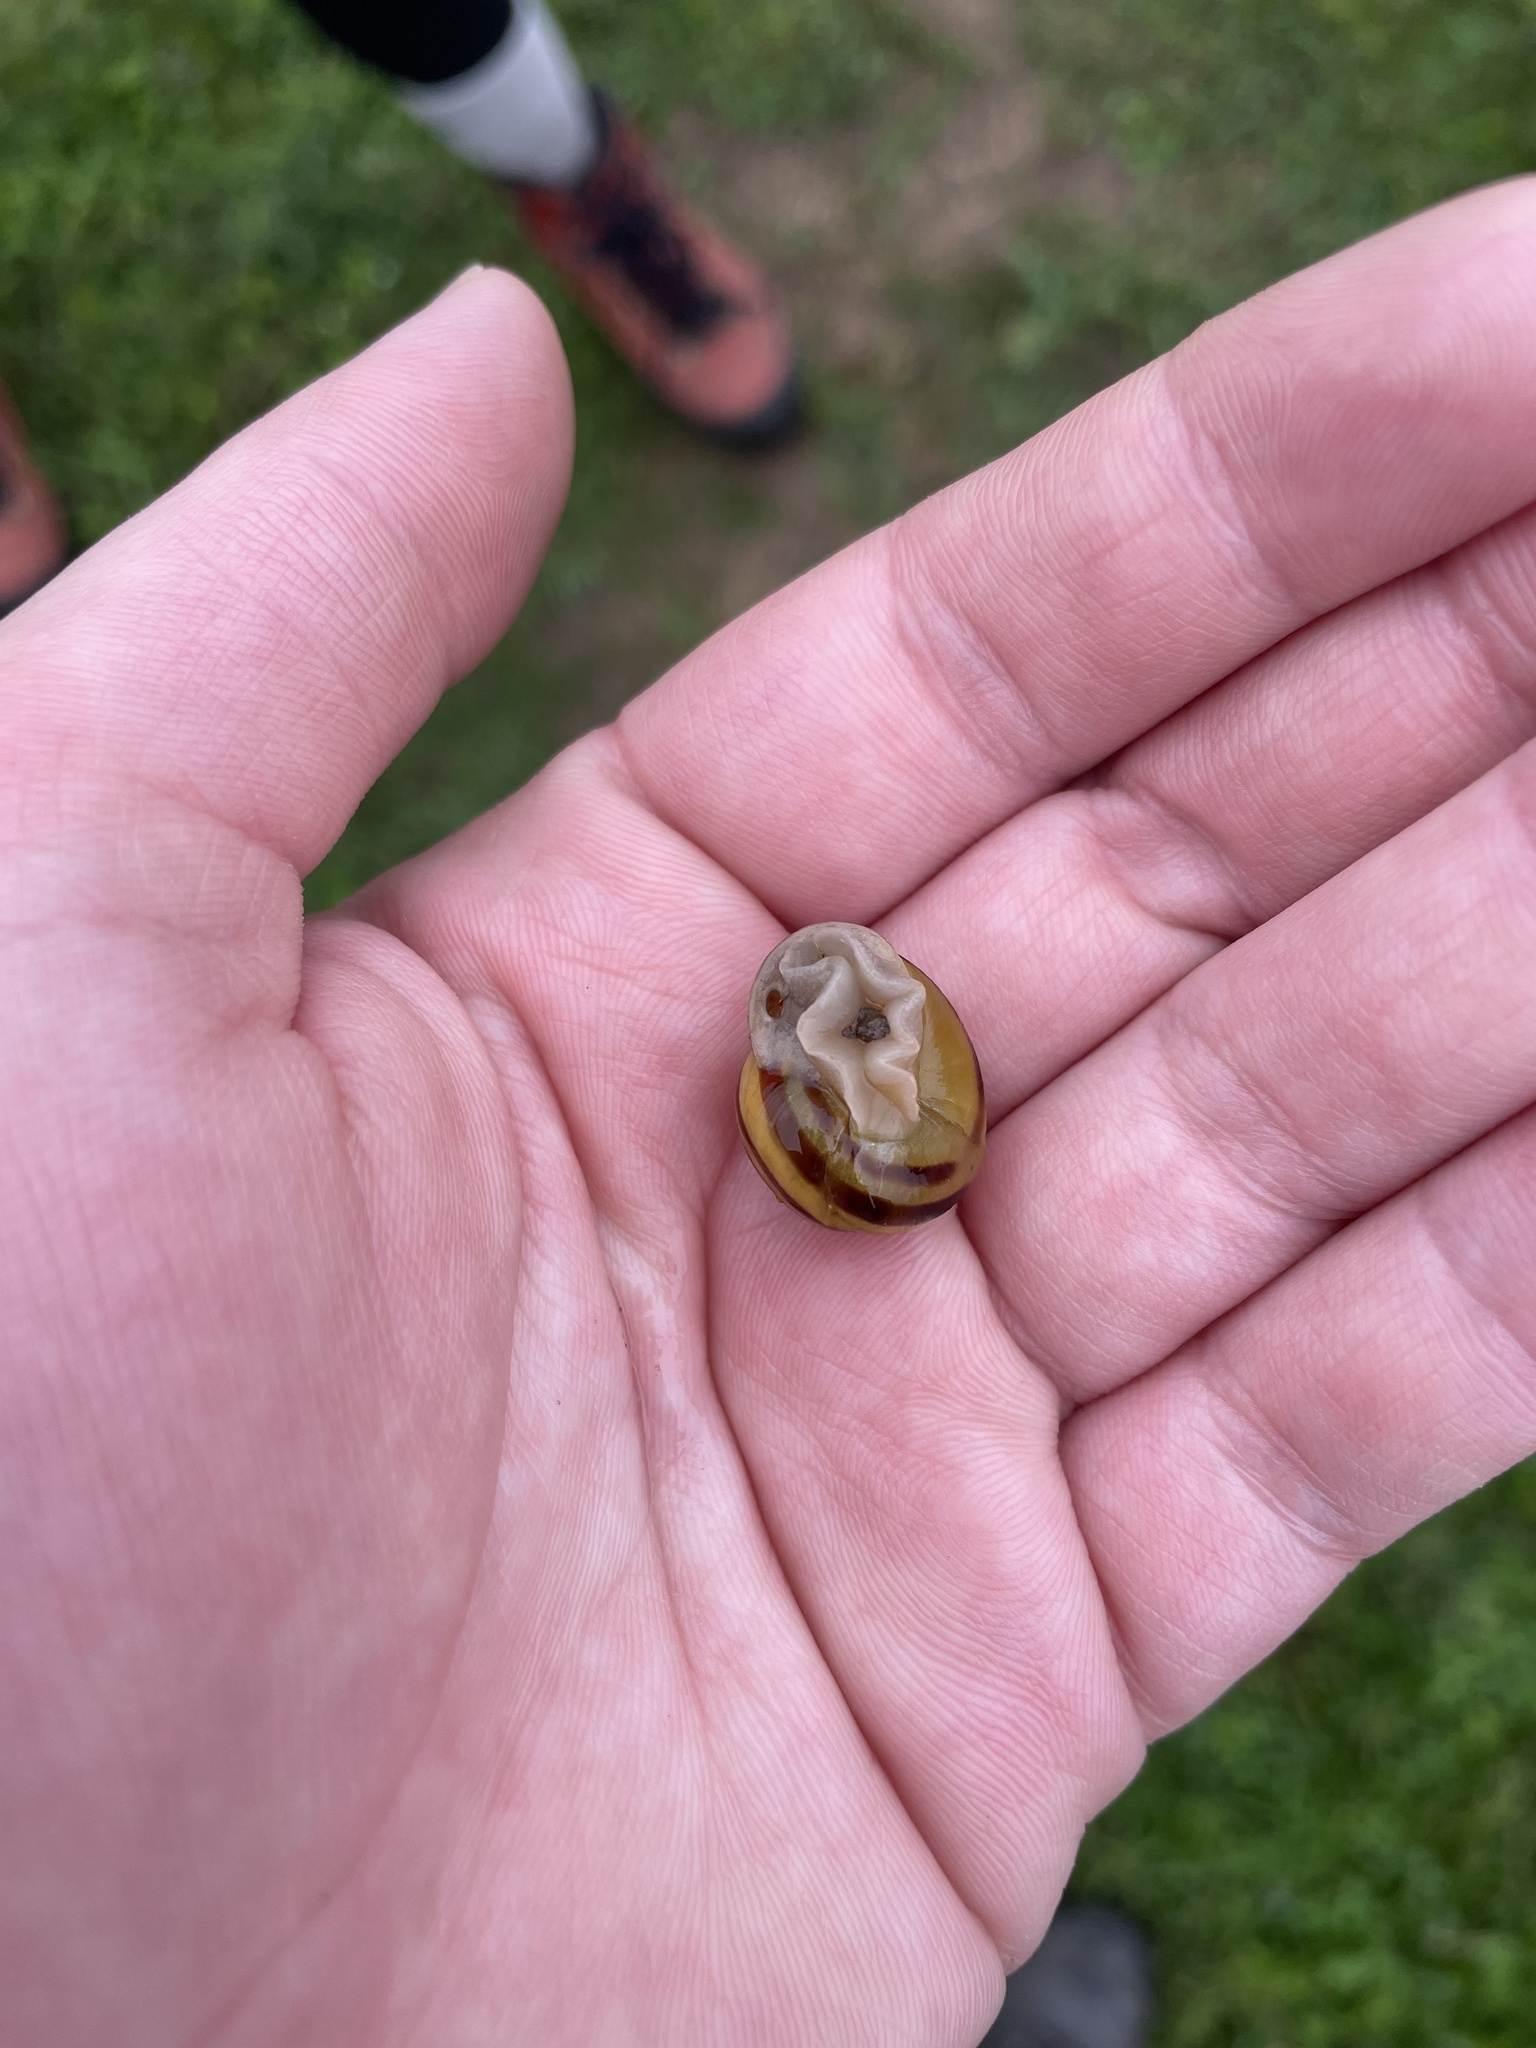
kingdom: Animalia
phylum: Mollusca
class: Gastropoda
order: Stylommatophora
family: Helicidae
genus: Cepaea
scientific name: Cepaea hortensis
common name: White-lip gardensnail
